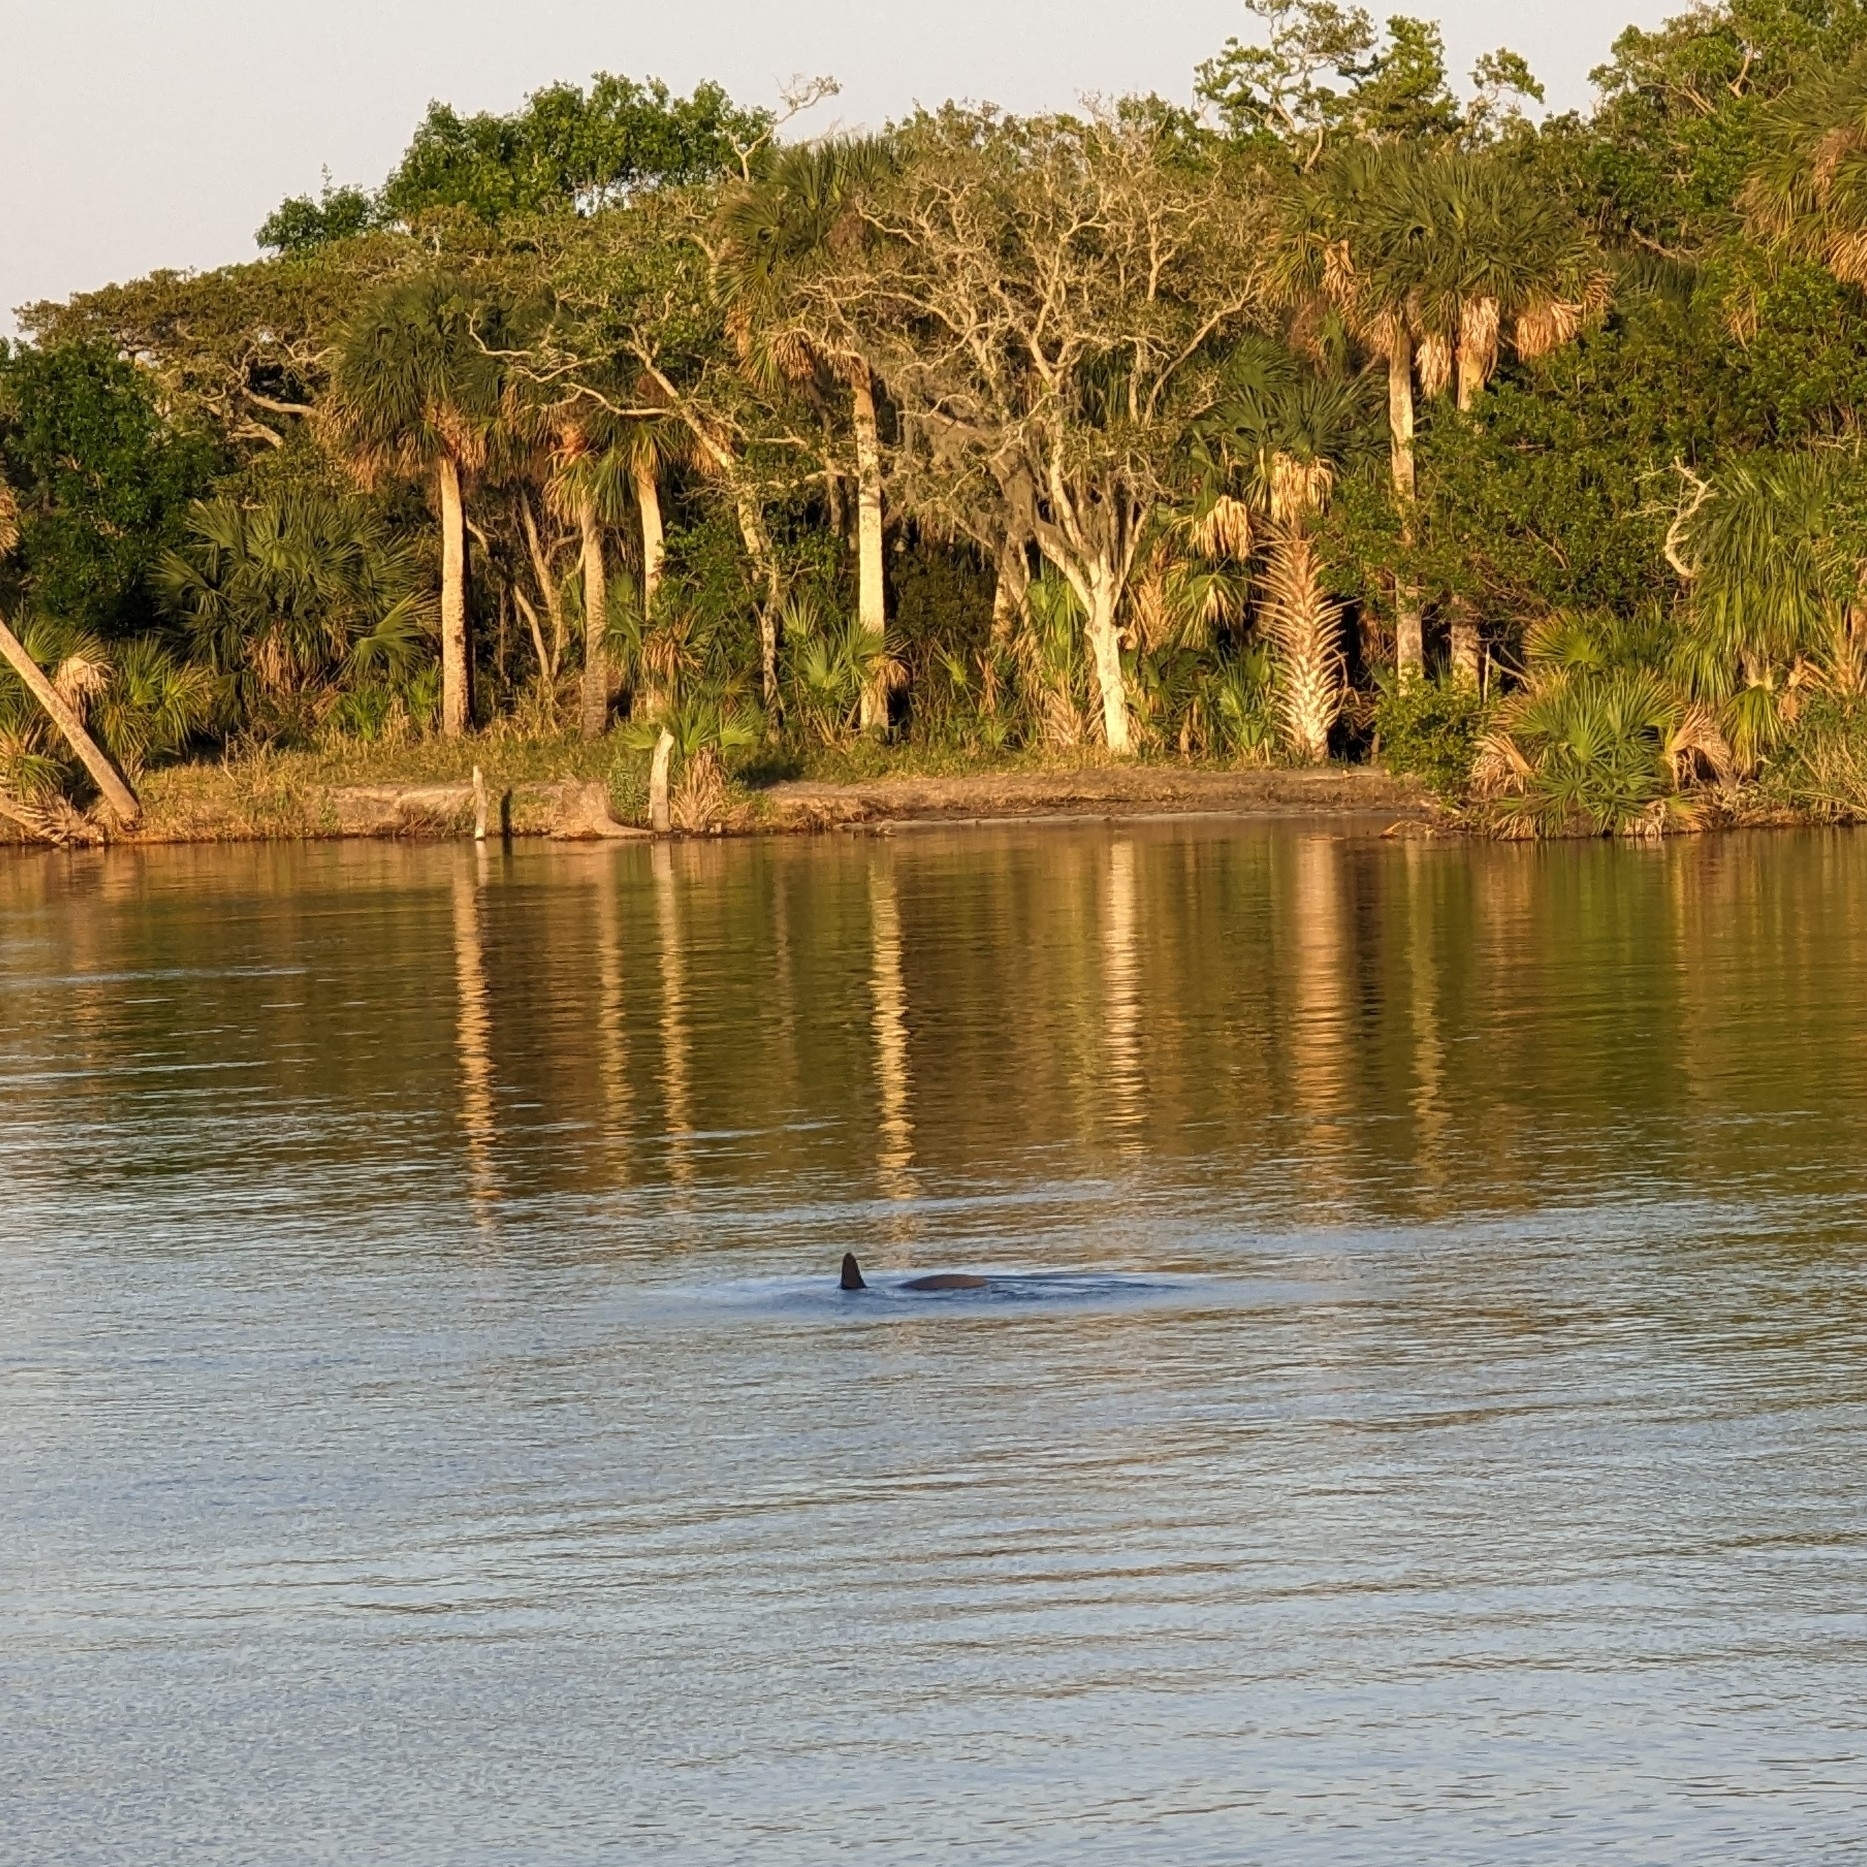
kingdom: Animalia
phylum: Chordata
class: Mammalia
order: Cetacea
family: Delphinidae
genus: Tursiops
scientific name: Tursiops truncatus
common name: Bottlenose dolphin
